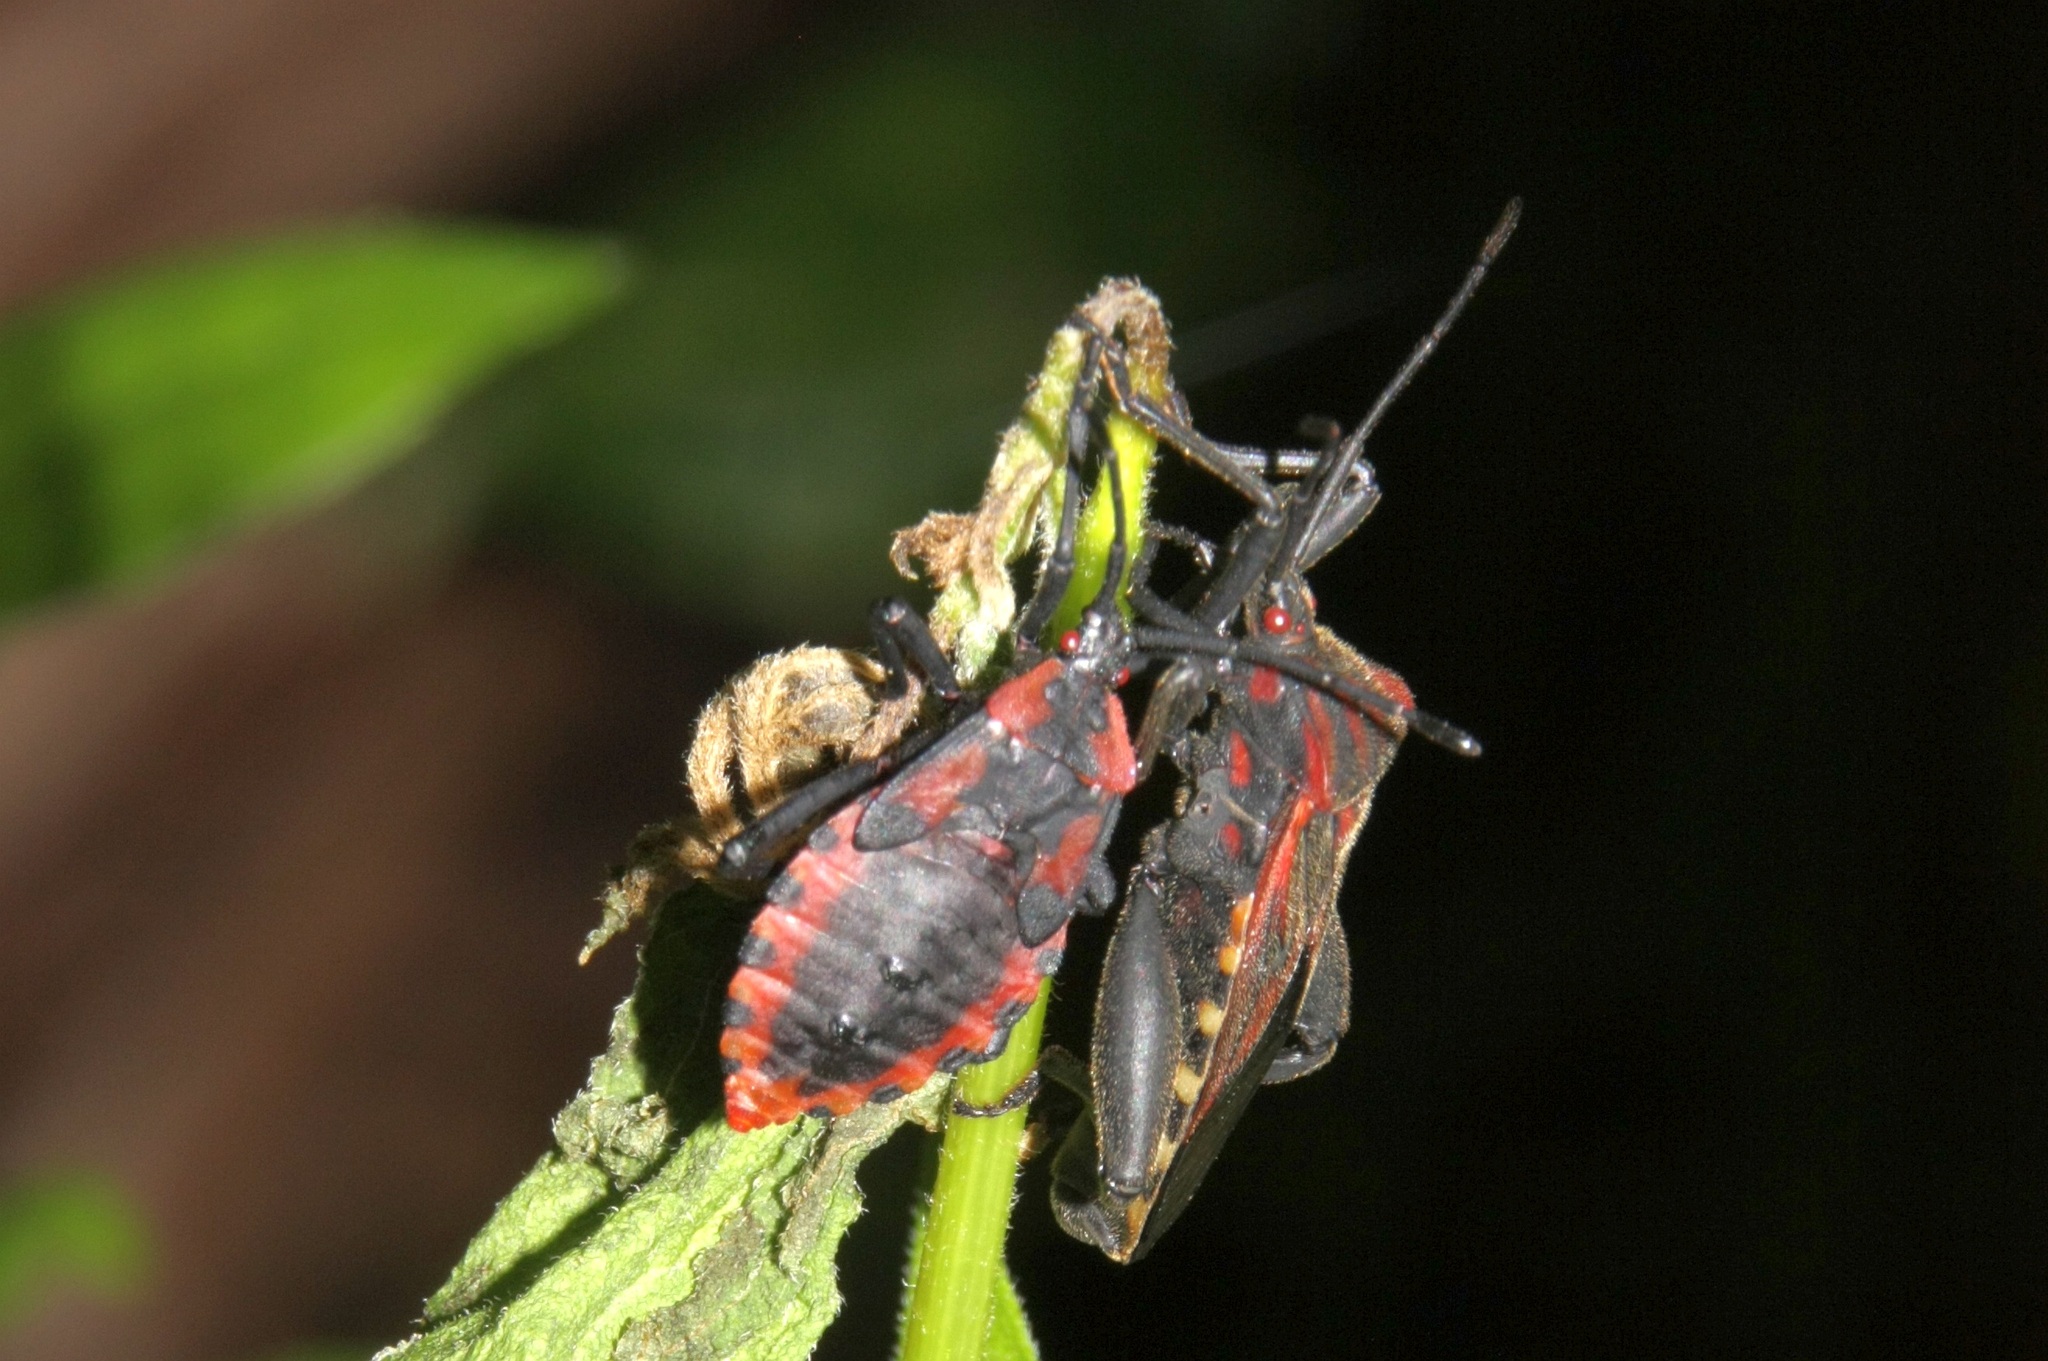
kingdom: Animalia
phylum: Arthropoda
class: Insecta
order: Hemiptera
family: Coreidae
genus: Piezogaster
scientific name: Piezogaster rubropictus
